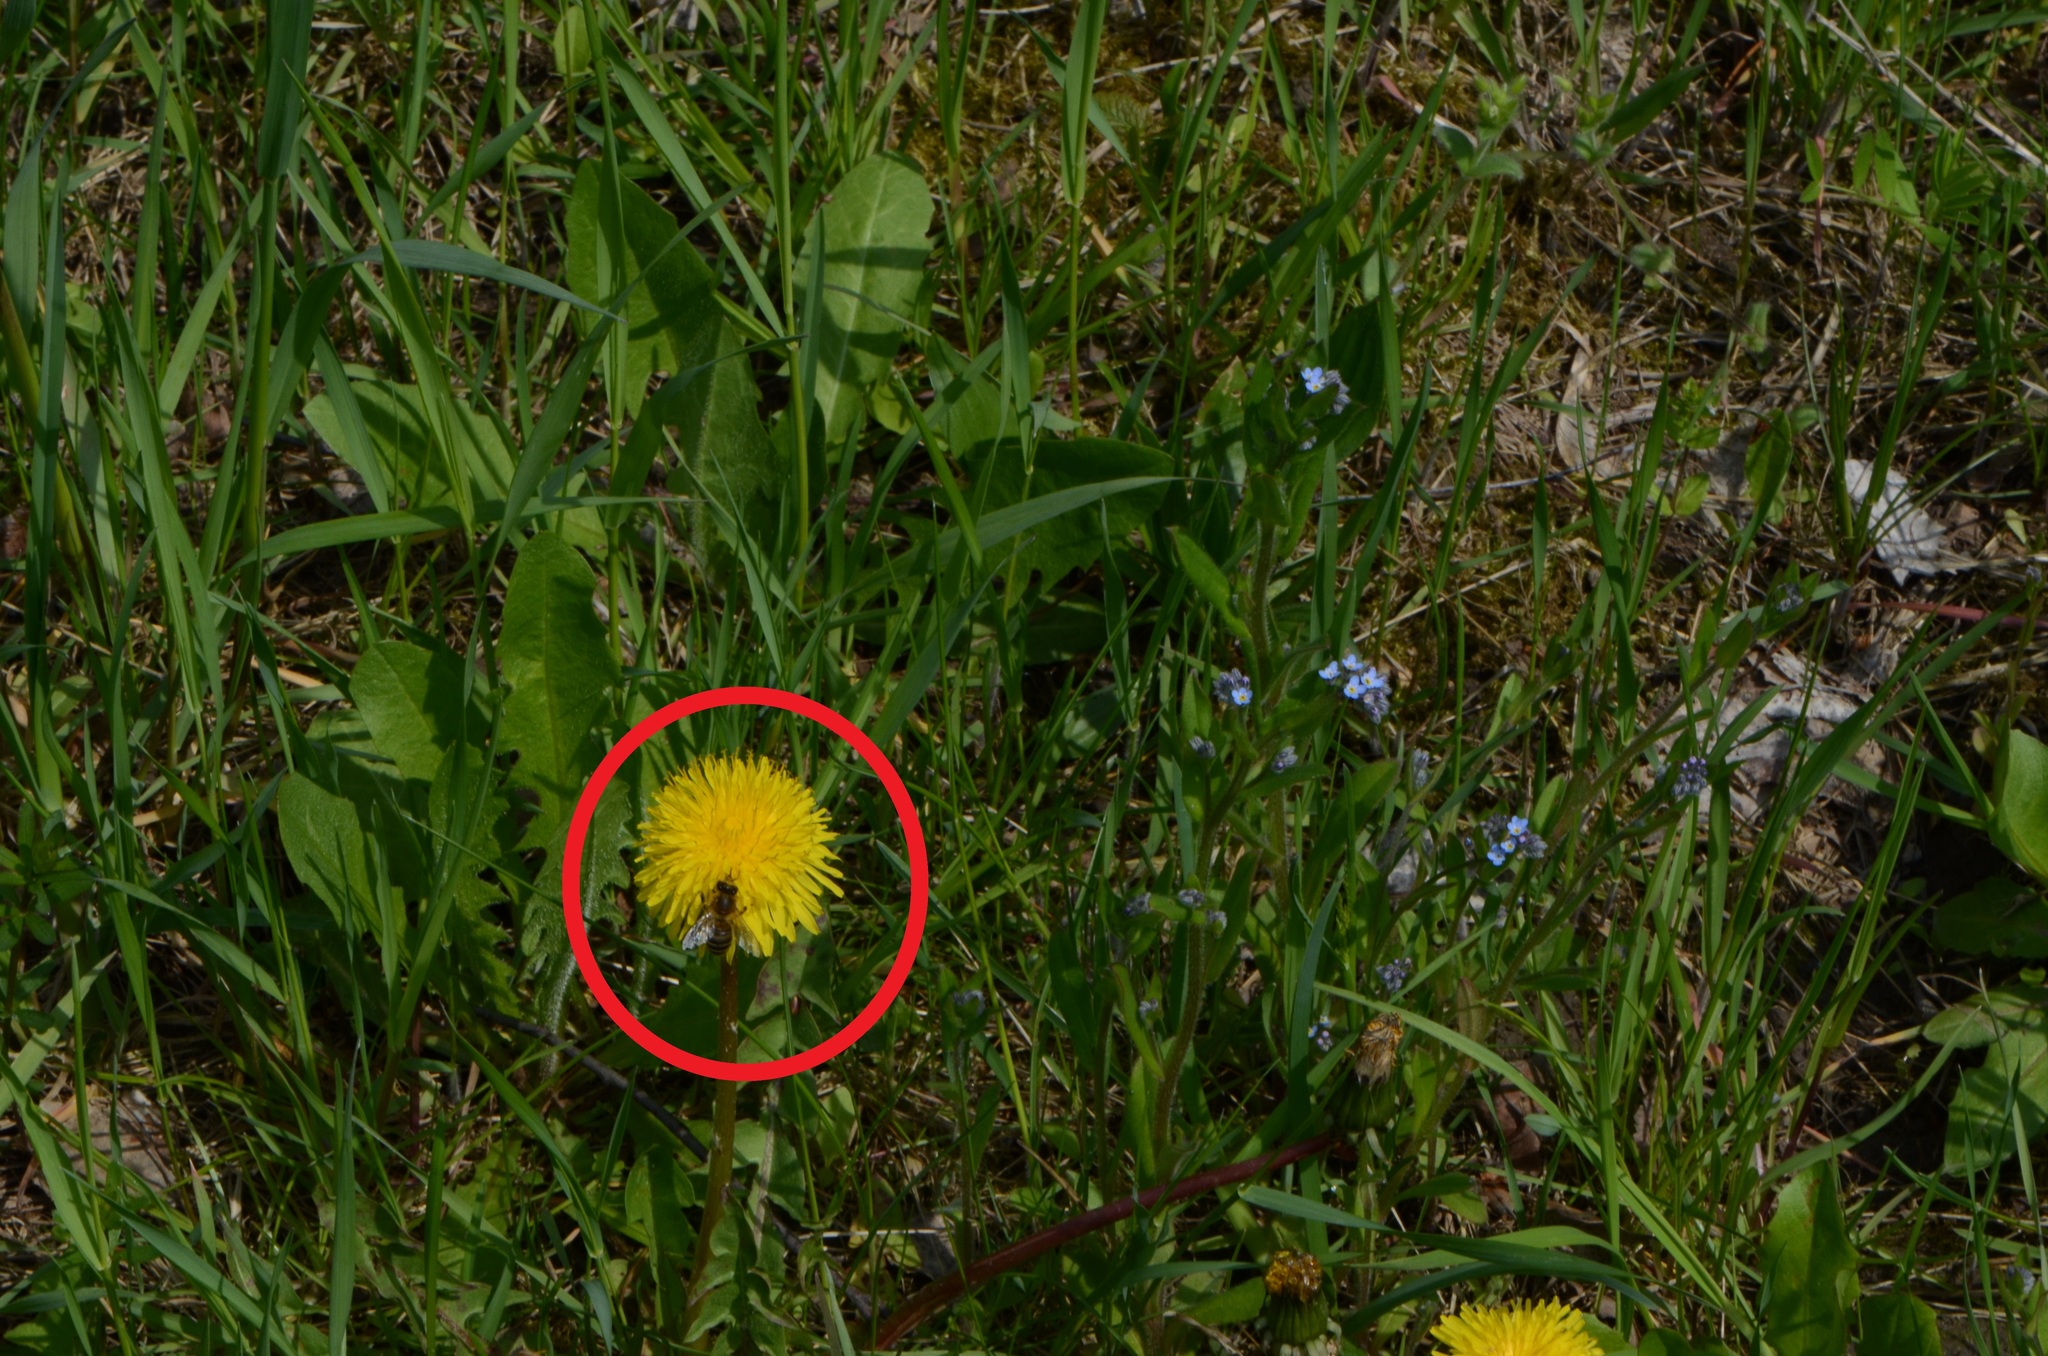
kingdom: Animalia
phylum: Arthropoda
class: Insecta
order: Hymenoptera
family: Apidae
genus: Apis
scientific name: Apis mellifera
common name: Honey bee
